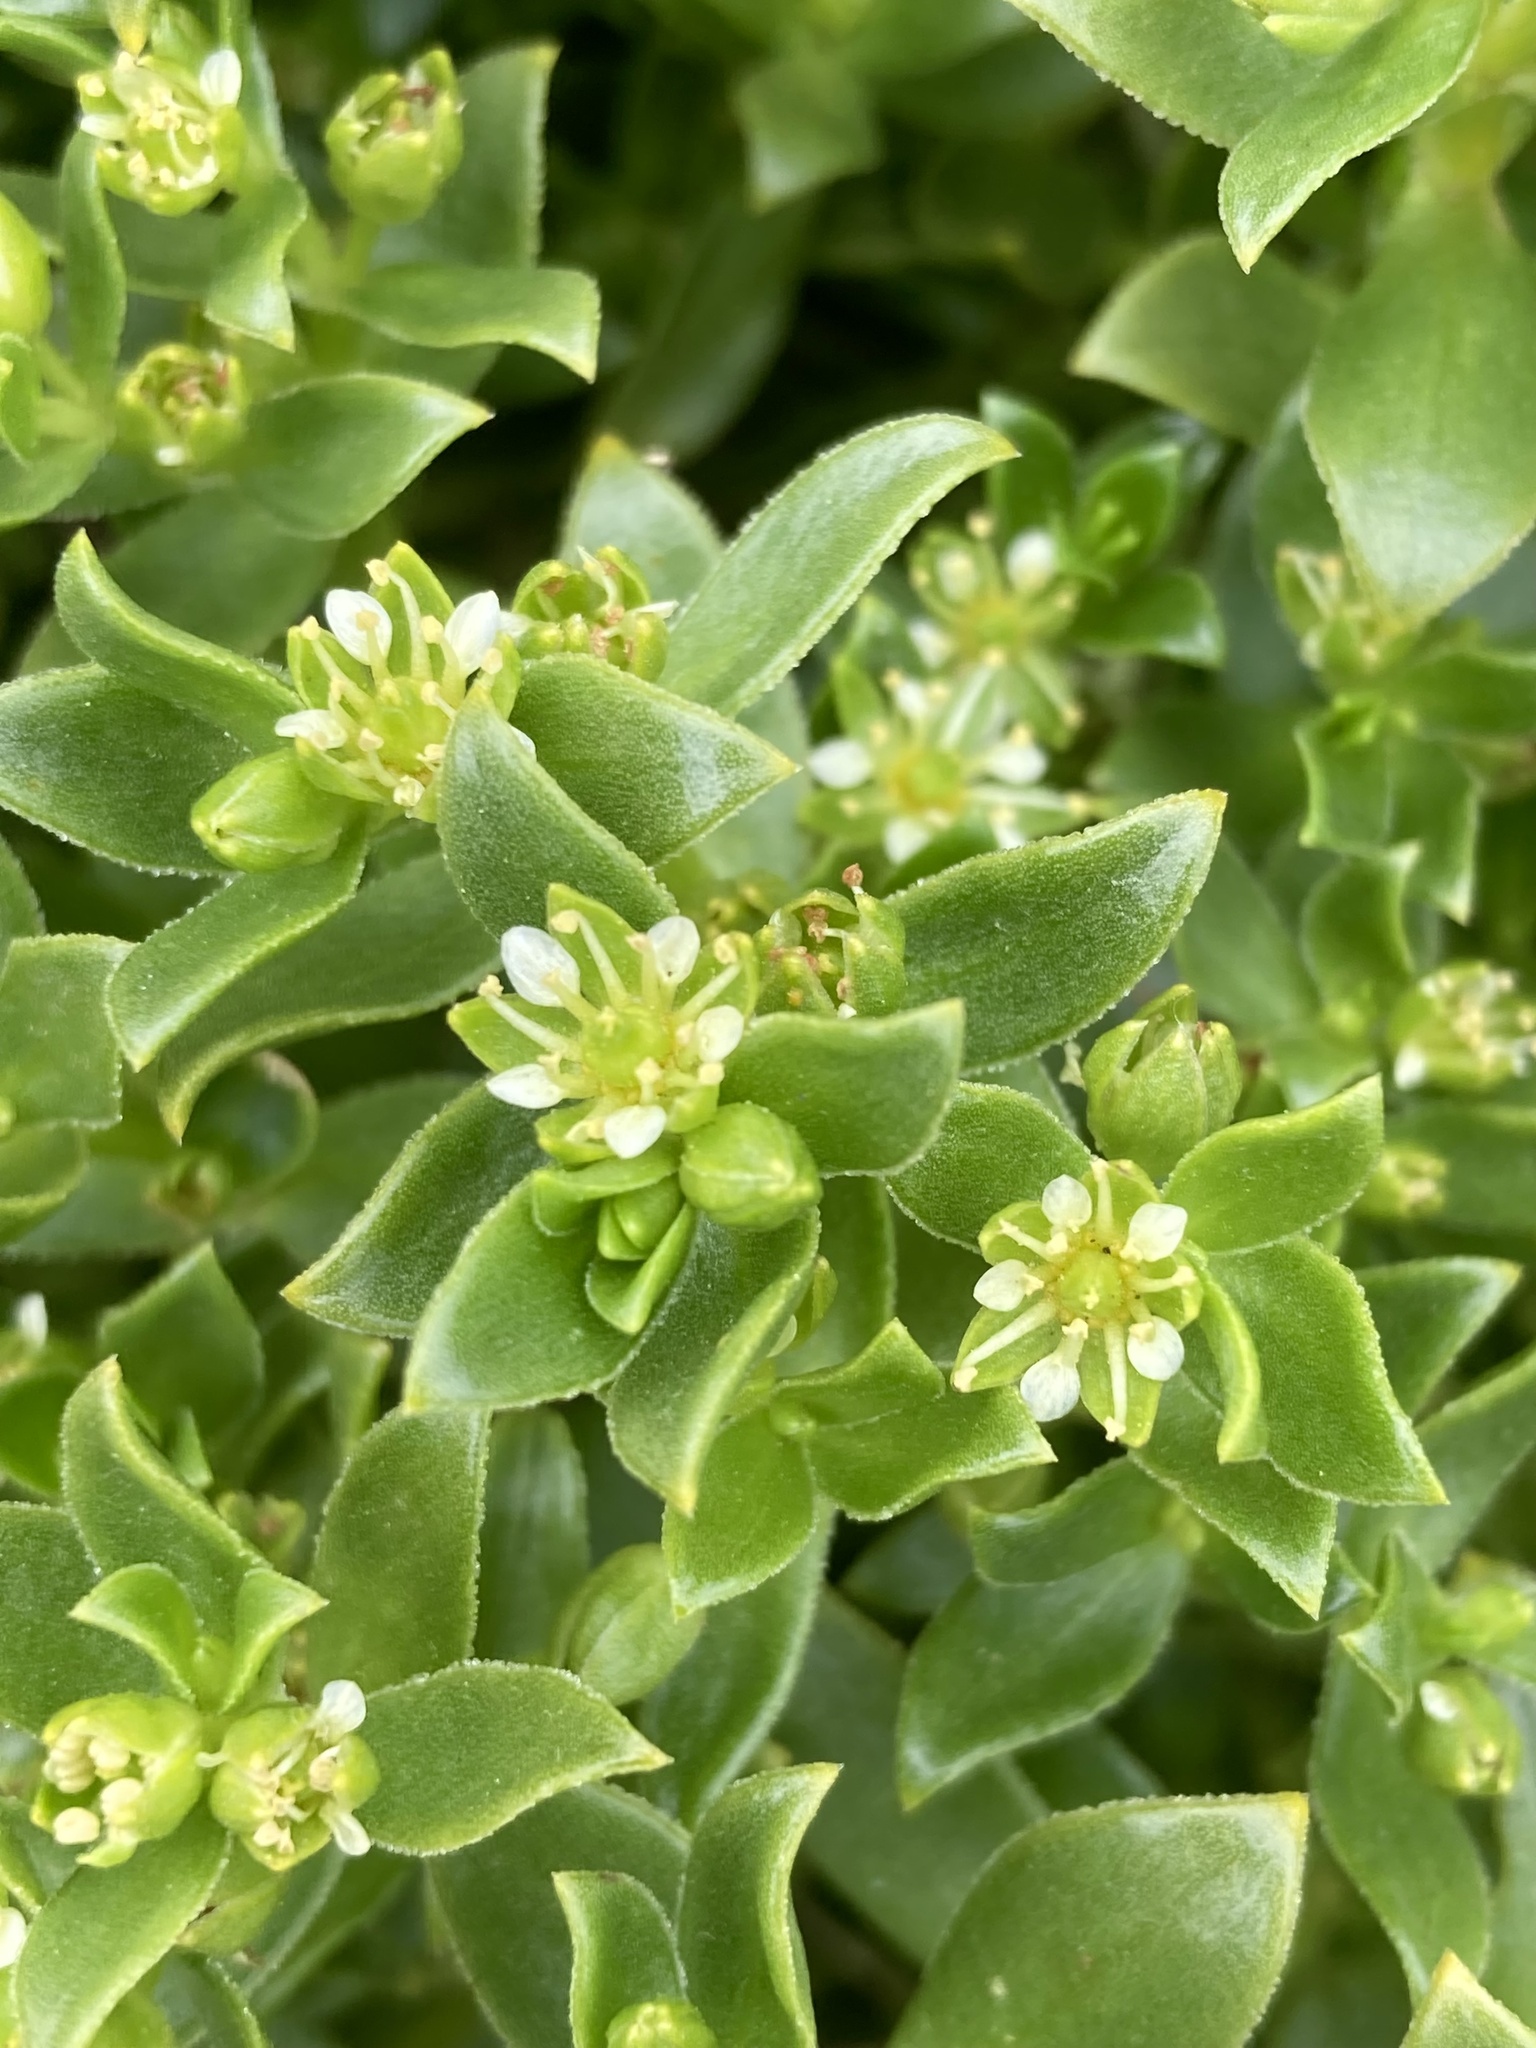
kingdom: Plantae
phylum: Tracheophyta
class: Magnoliopsida
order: Caryophyllales
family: Caryophyllaceae
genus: Honckenya
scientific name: Honckenya peploides
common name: Sea sandwort
